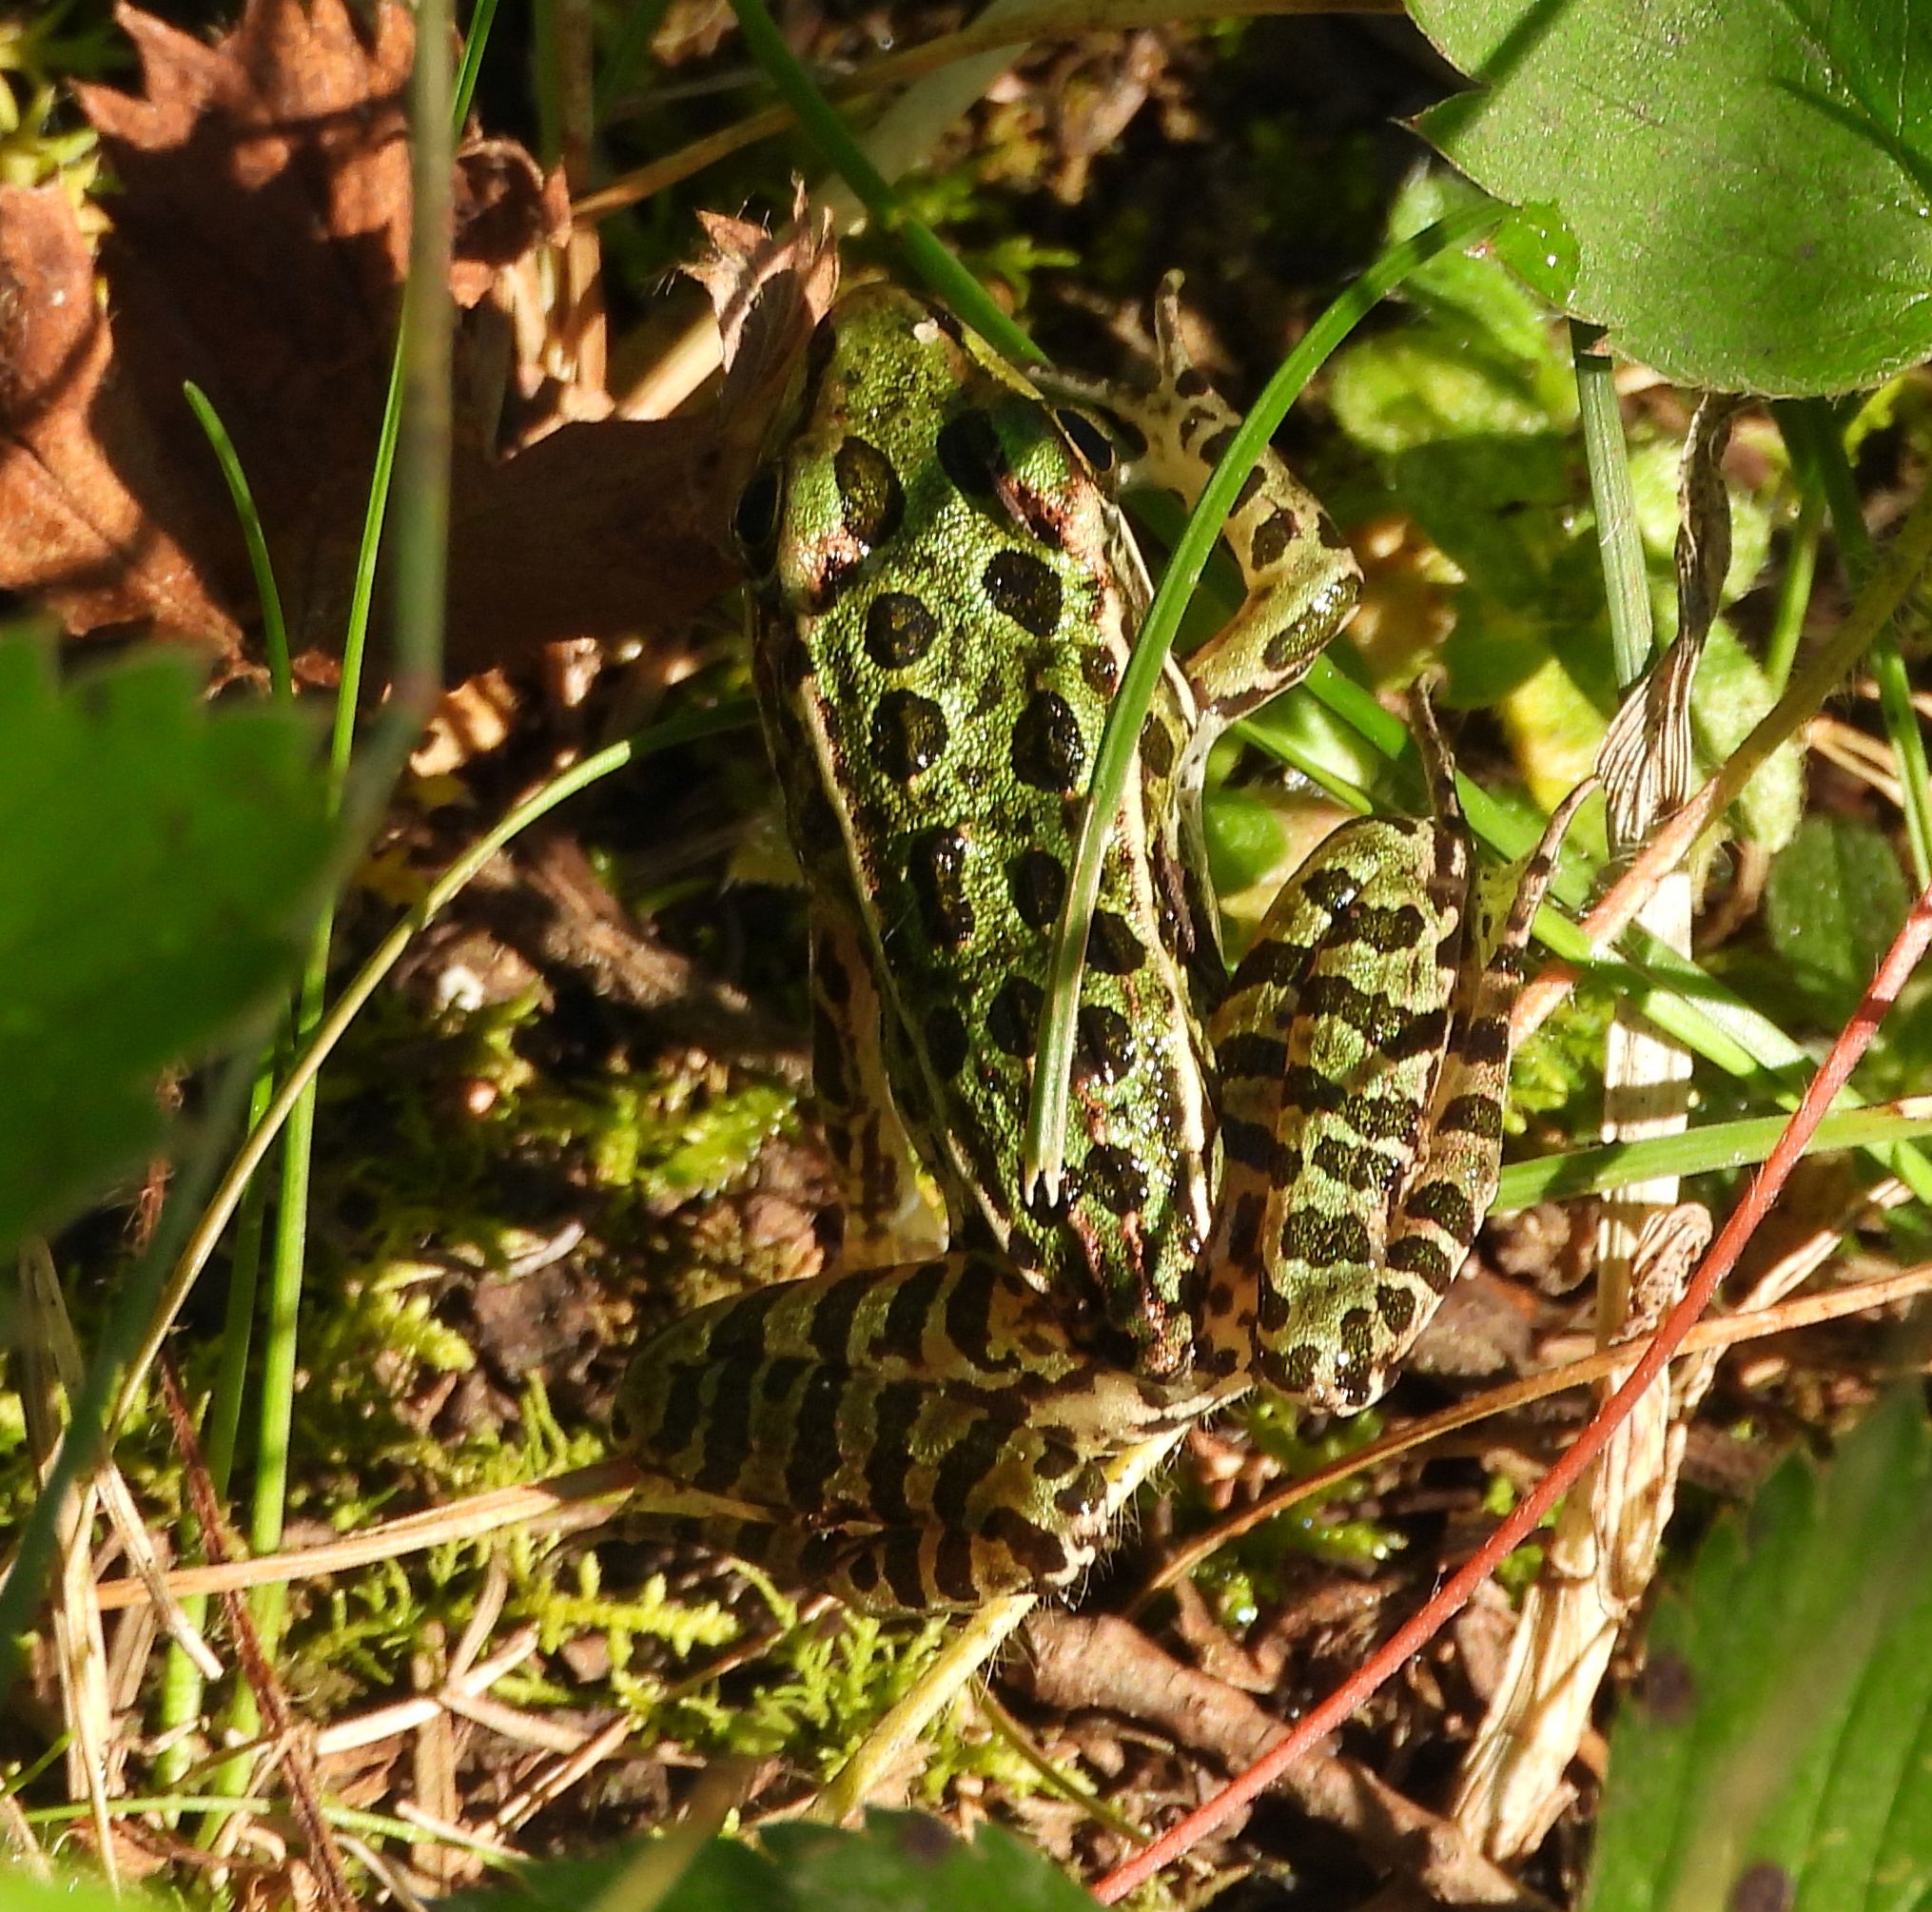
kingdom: Animalia
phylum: Chordata
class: Amphibia
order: Anura
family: Ranidae
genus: Lithobates
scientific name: Lithobates pipiens
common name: Northern leopard frog
